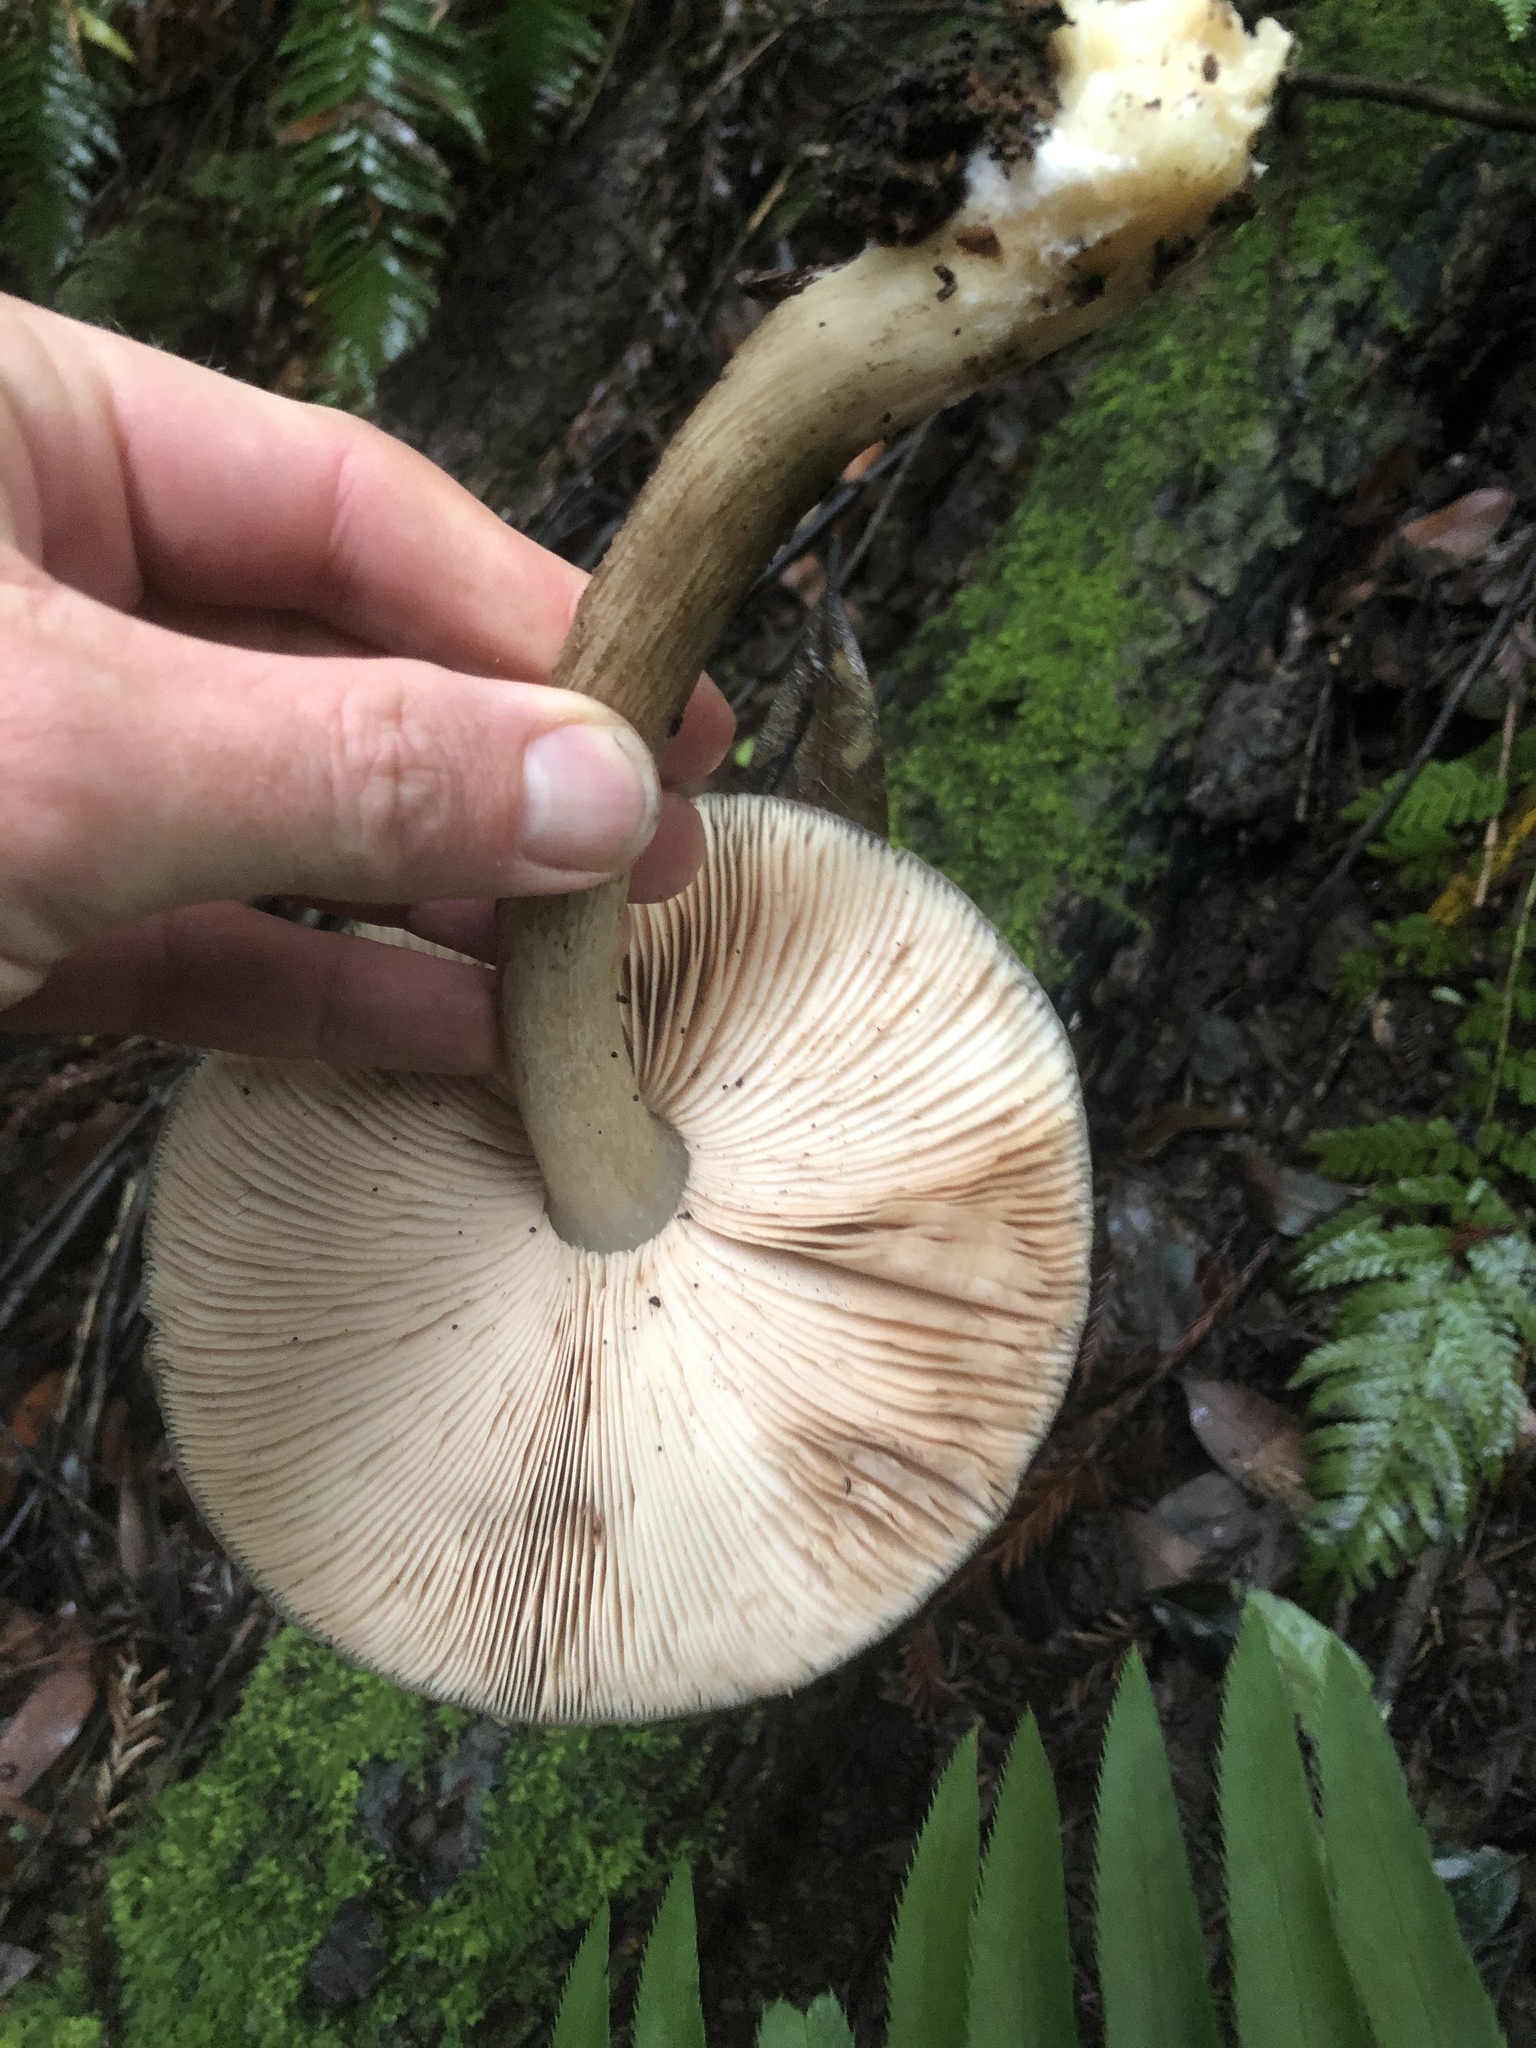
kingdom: Fungi
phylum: Basidiomycota
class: Agaricomycetes
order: Agaricales
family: Pluteaceae
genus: Pluteus
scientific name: Pluteus cervinus
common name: Deer shield
